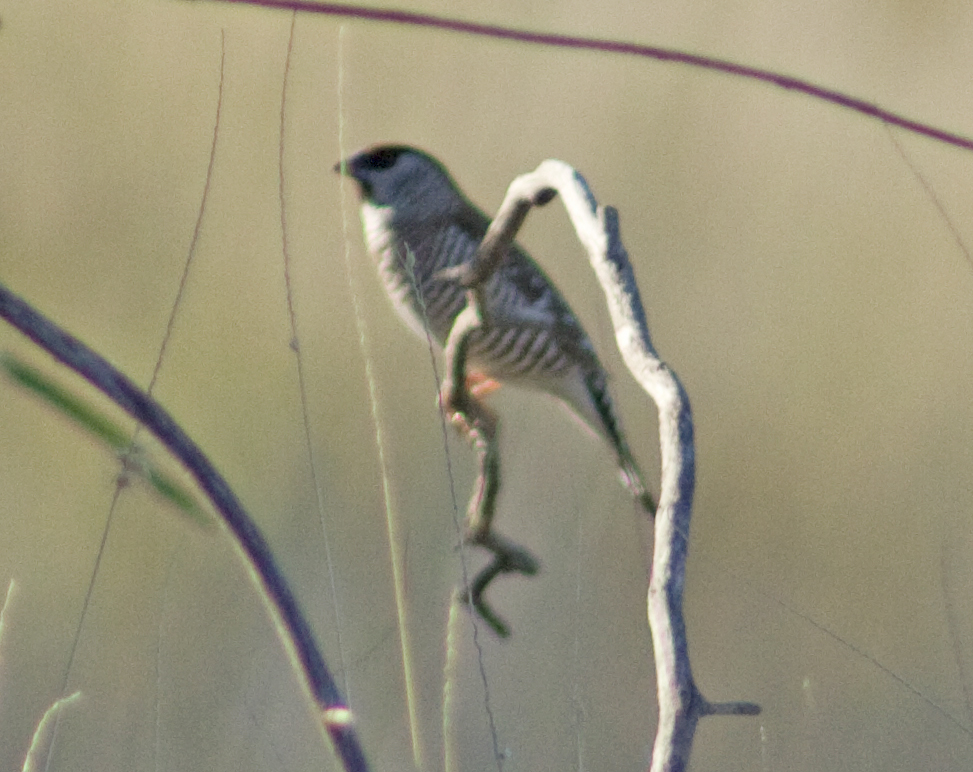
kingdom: Animalia
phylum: Chordata
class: Aves
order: Passeriformes
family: Estrildidae
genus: Neochmia
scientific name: Neochmia modesta
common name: Plum-headed finch
